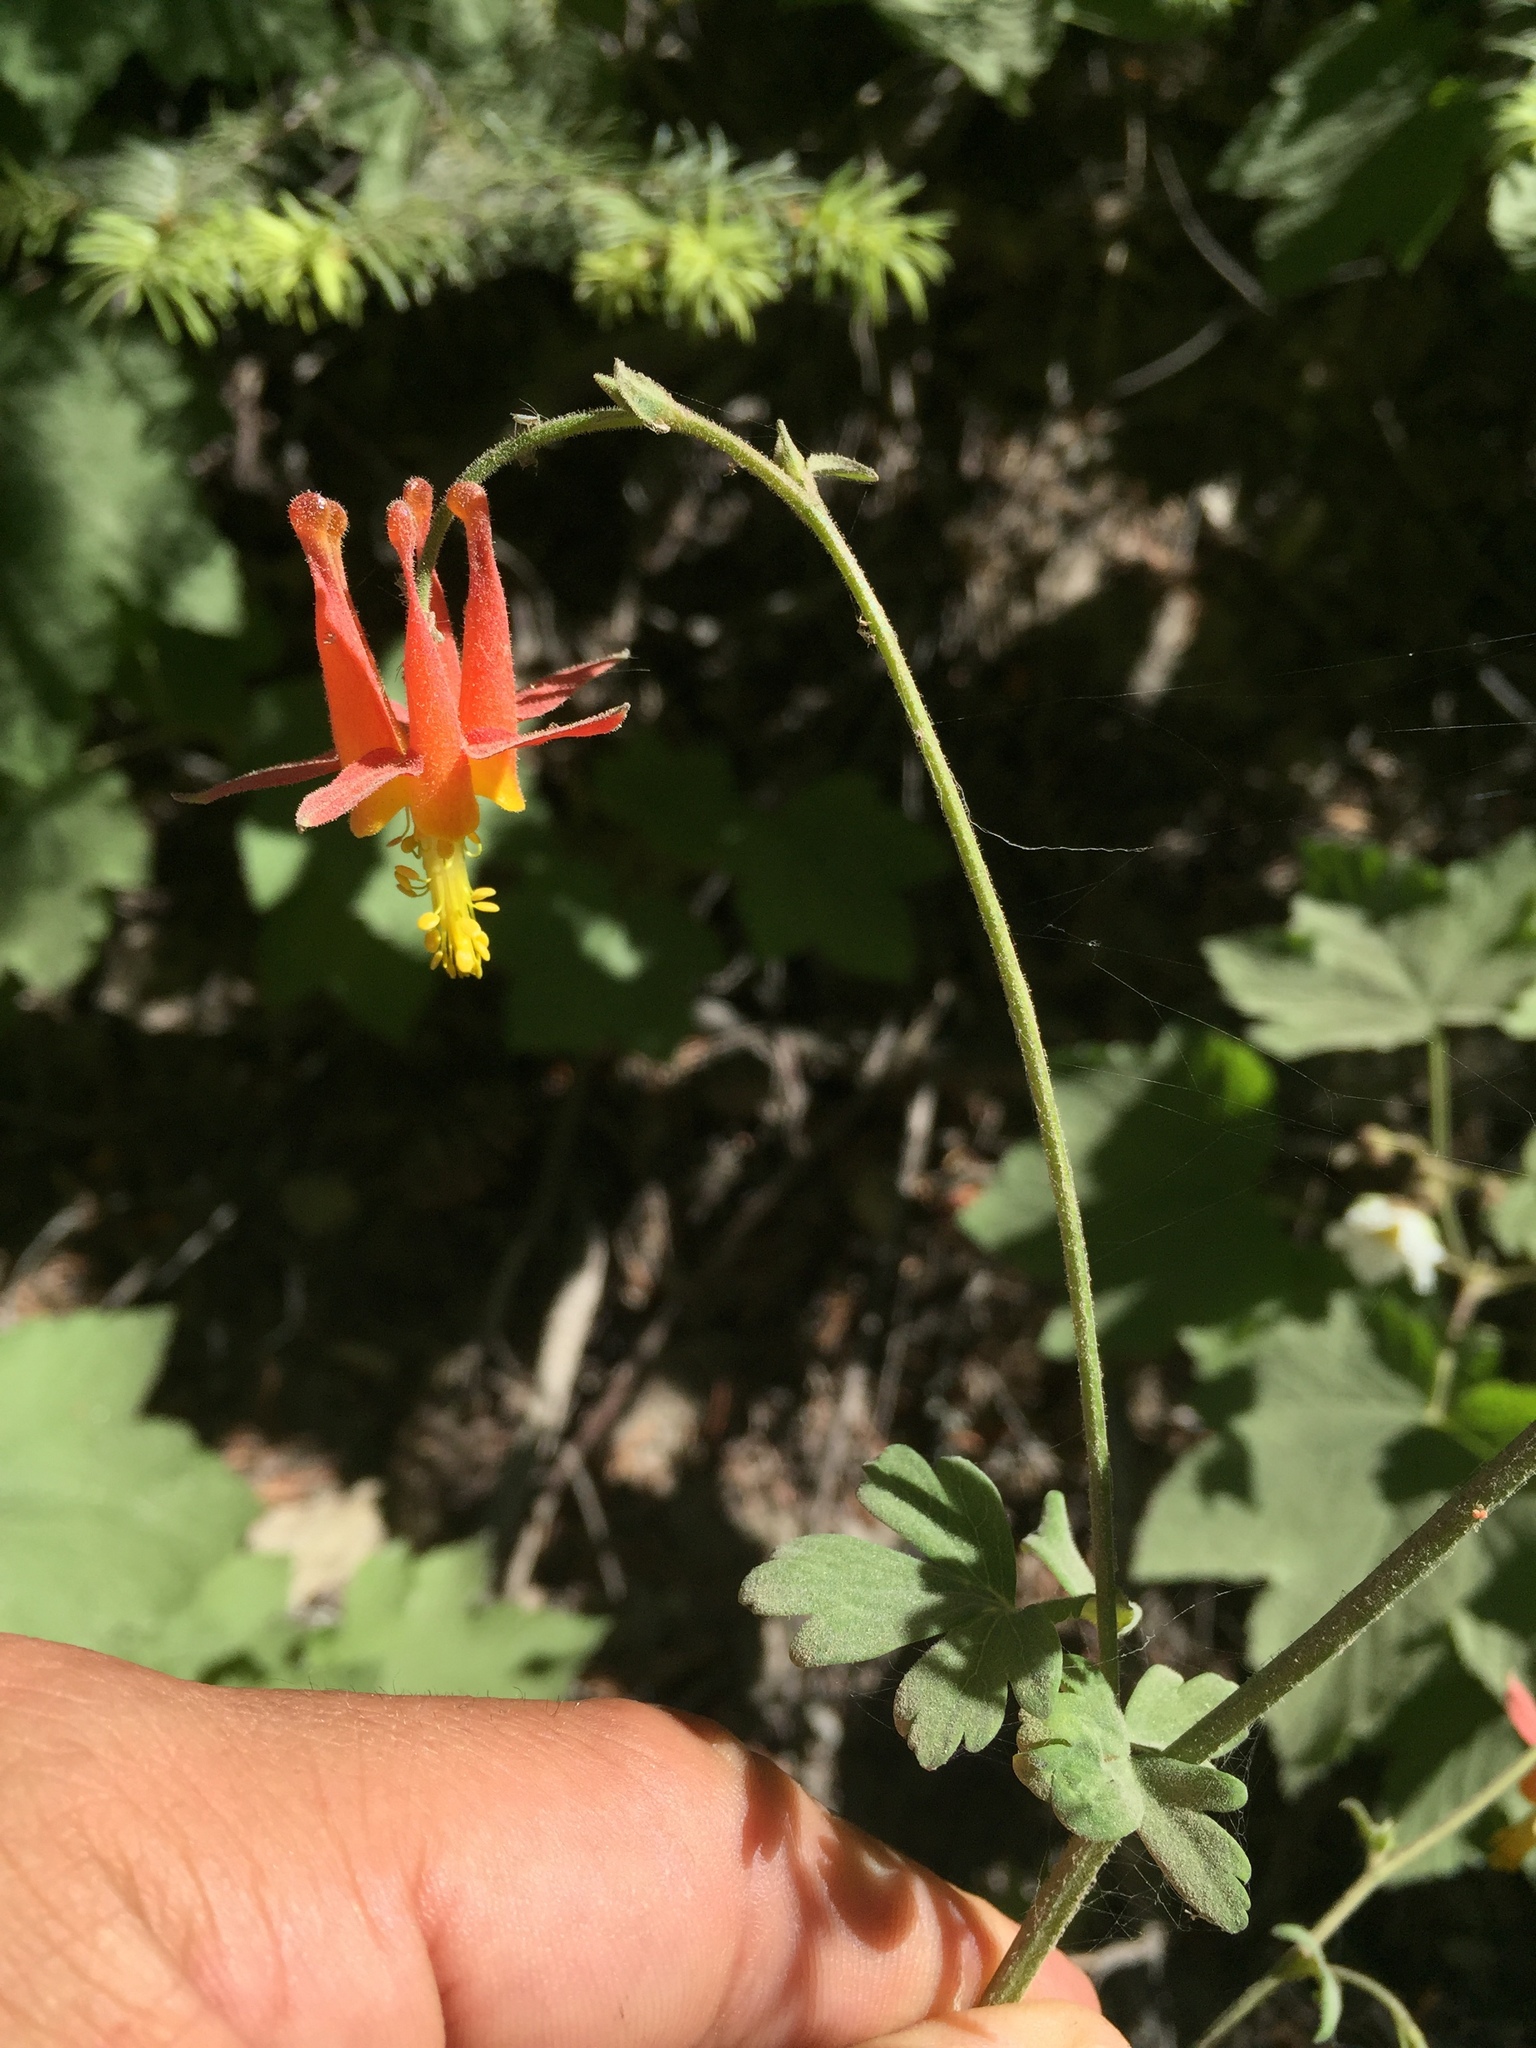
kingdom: Plantae
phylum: Tracheophyta
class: Magnoliopsida
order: Ranunculales
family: Ranunculaceae
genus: Aquilegia
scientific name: Aquilegia formosa
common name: Sitka columbine
